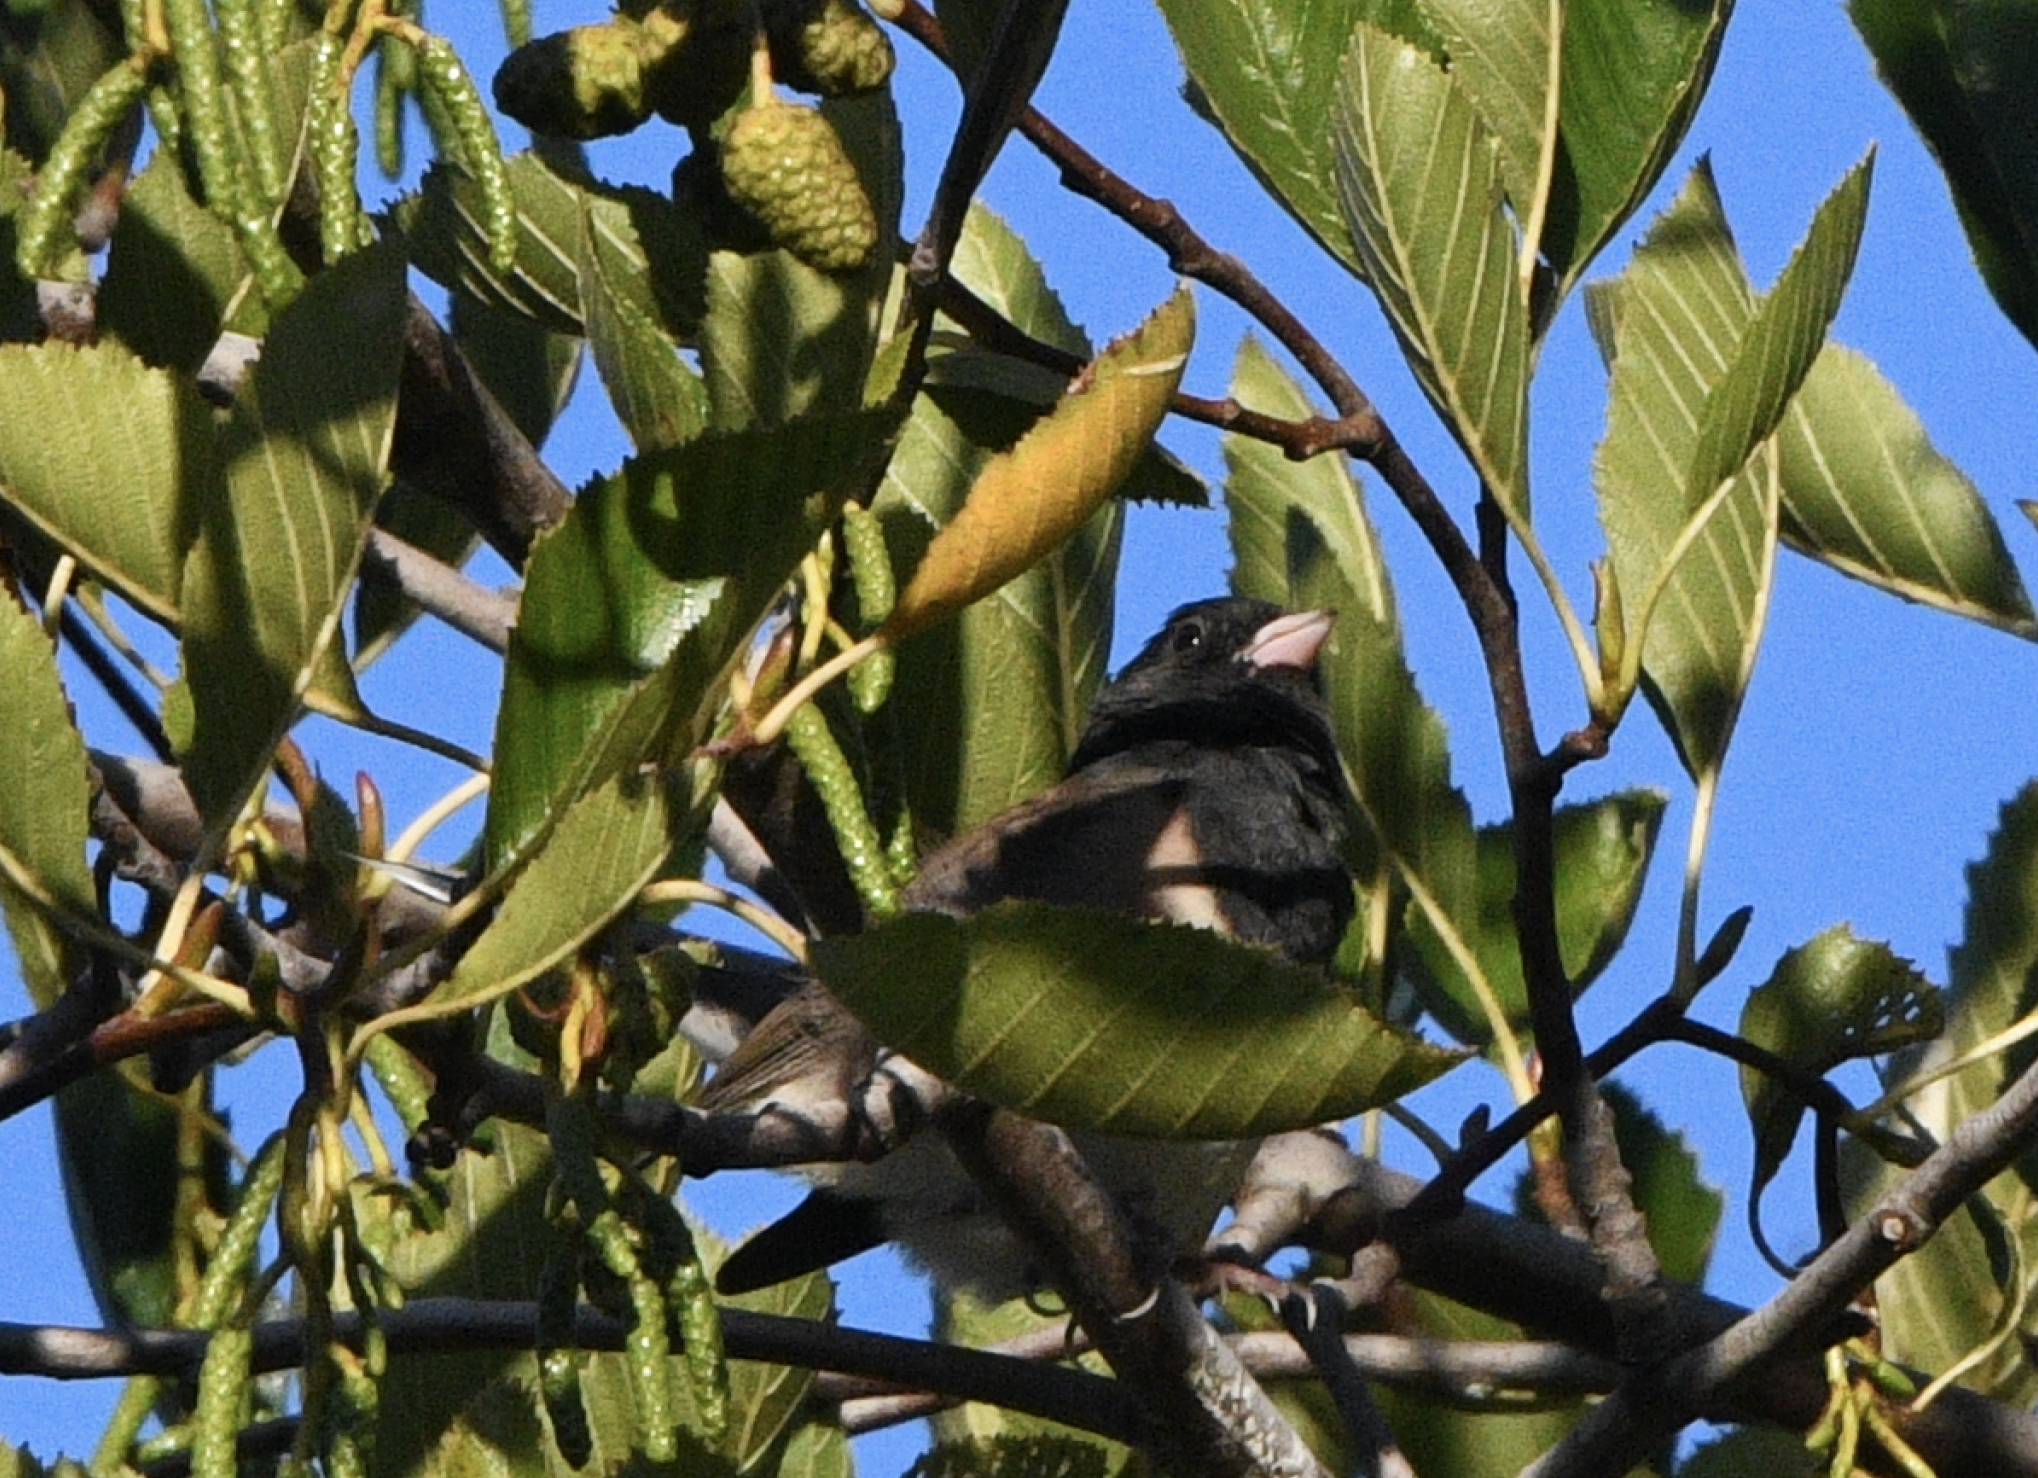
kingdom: Animalia
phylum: Chordata
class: Aves
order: Passeriformes
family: Passerellidae
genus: Junco
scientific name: Junco hyemalis
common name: Dark-eyed junco
